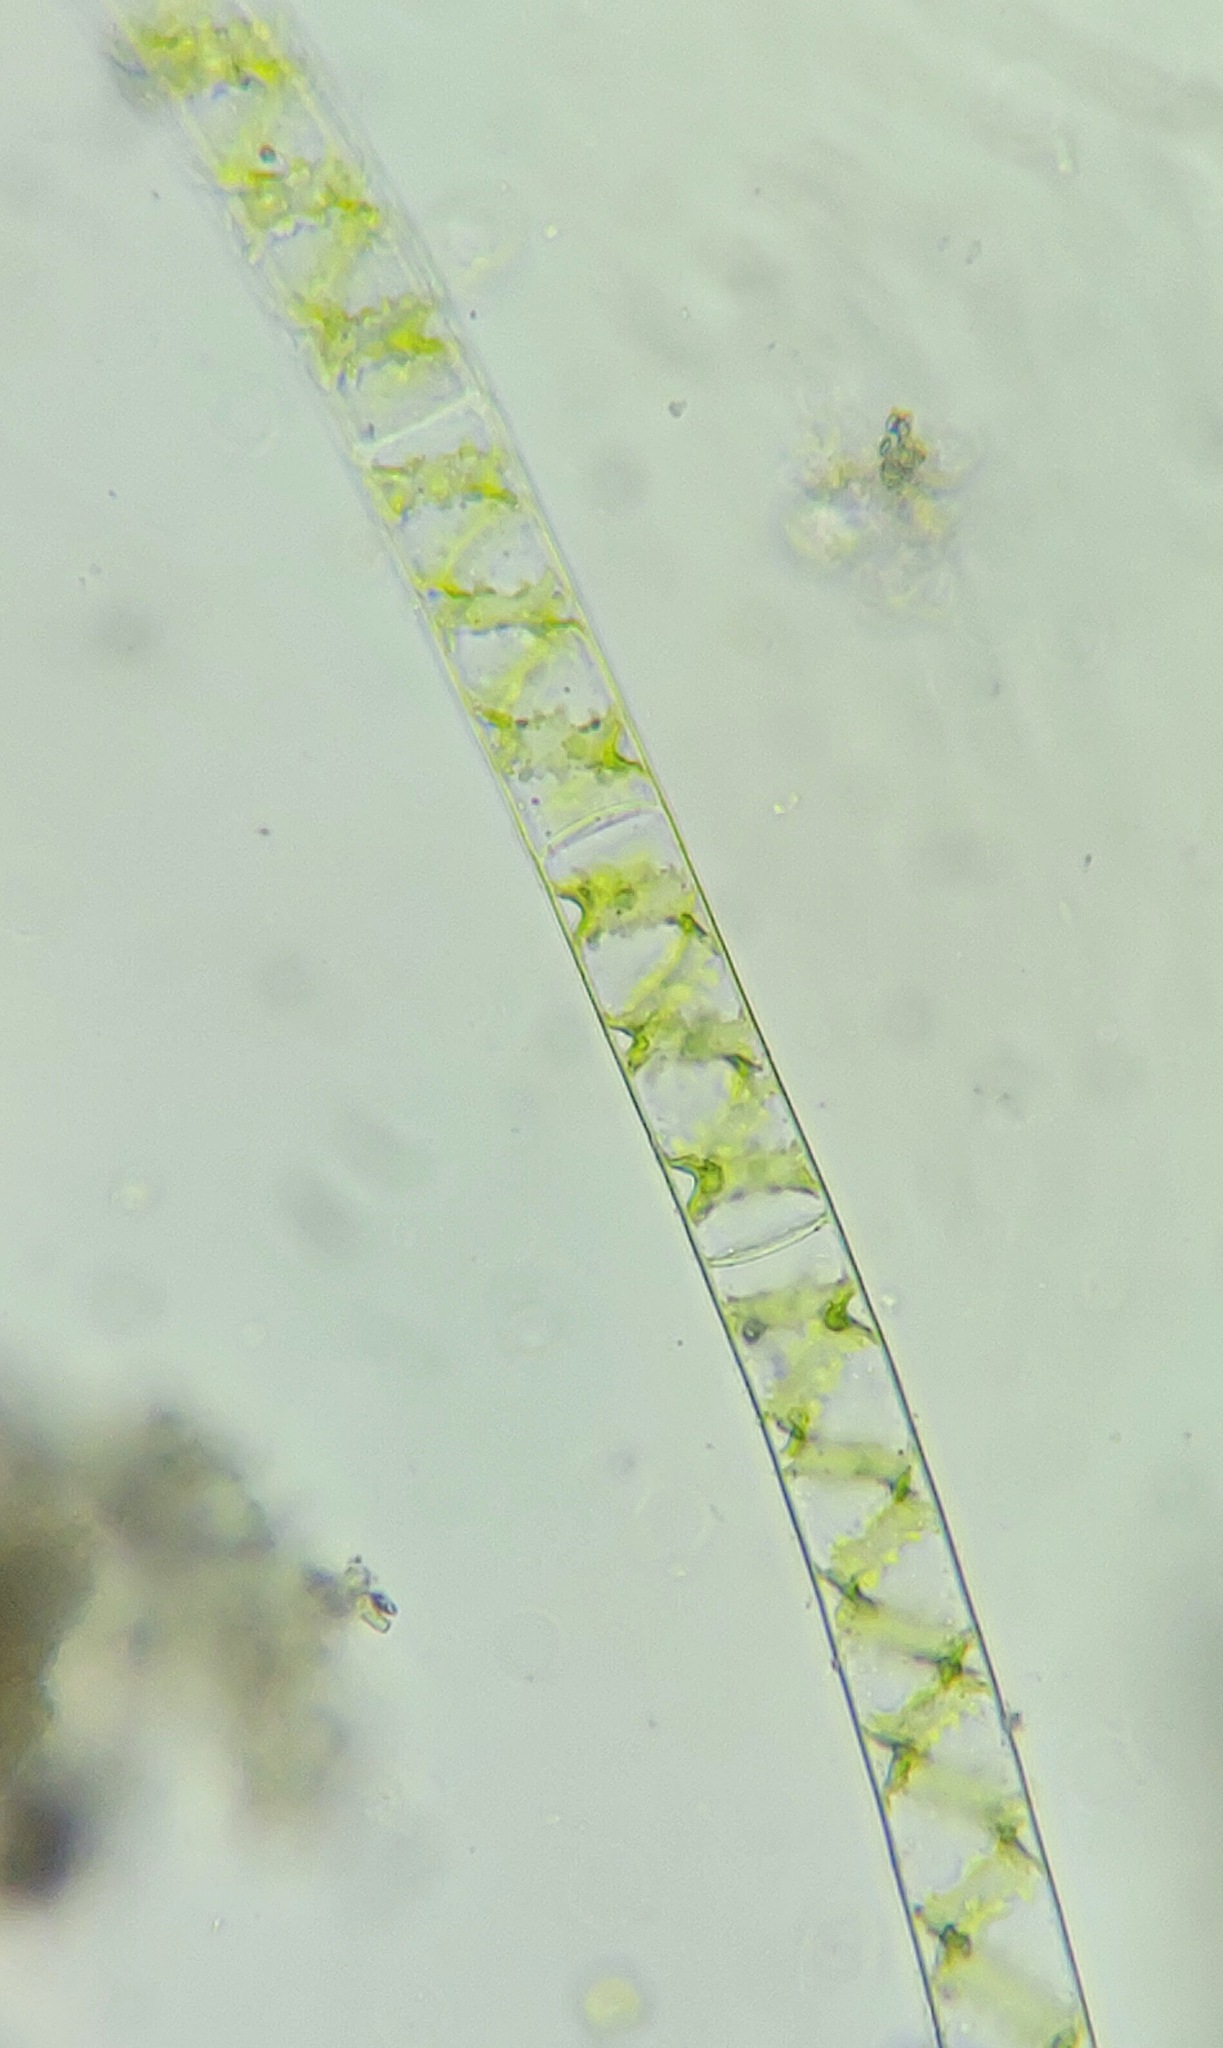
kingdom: Plantae
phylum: Charophyta
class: Zygnematophyceae
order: Zygnematales
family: Zygnemataceae
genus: Spirogyra
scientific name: Spirogyra
